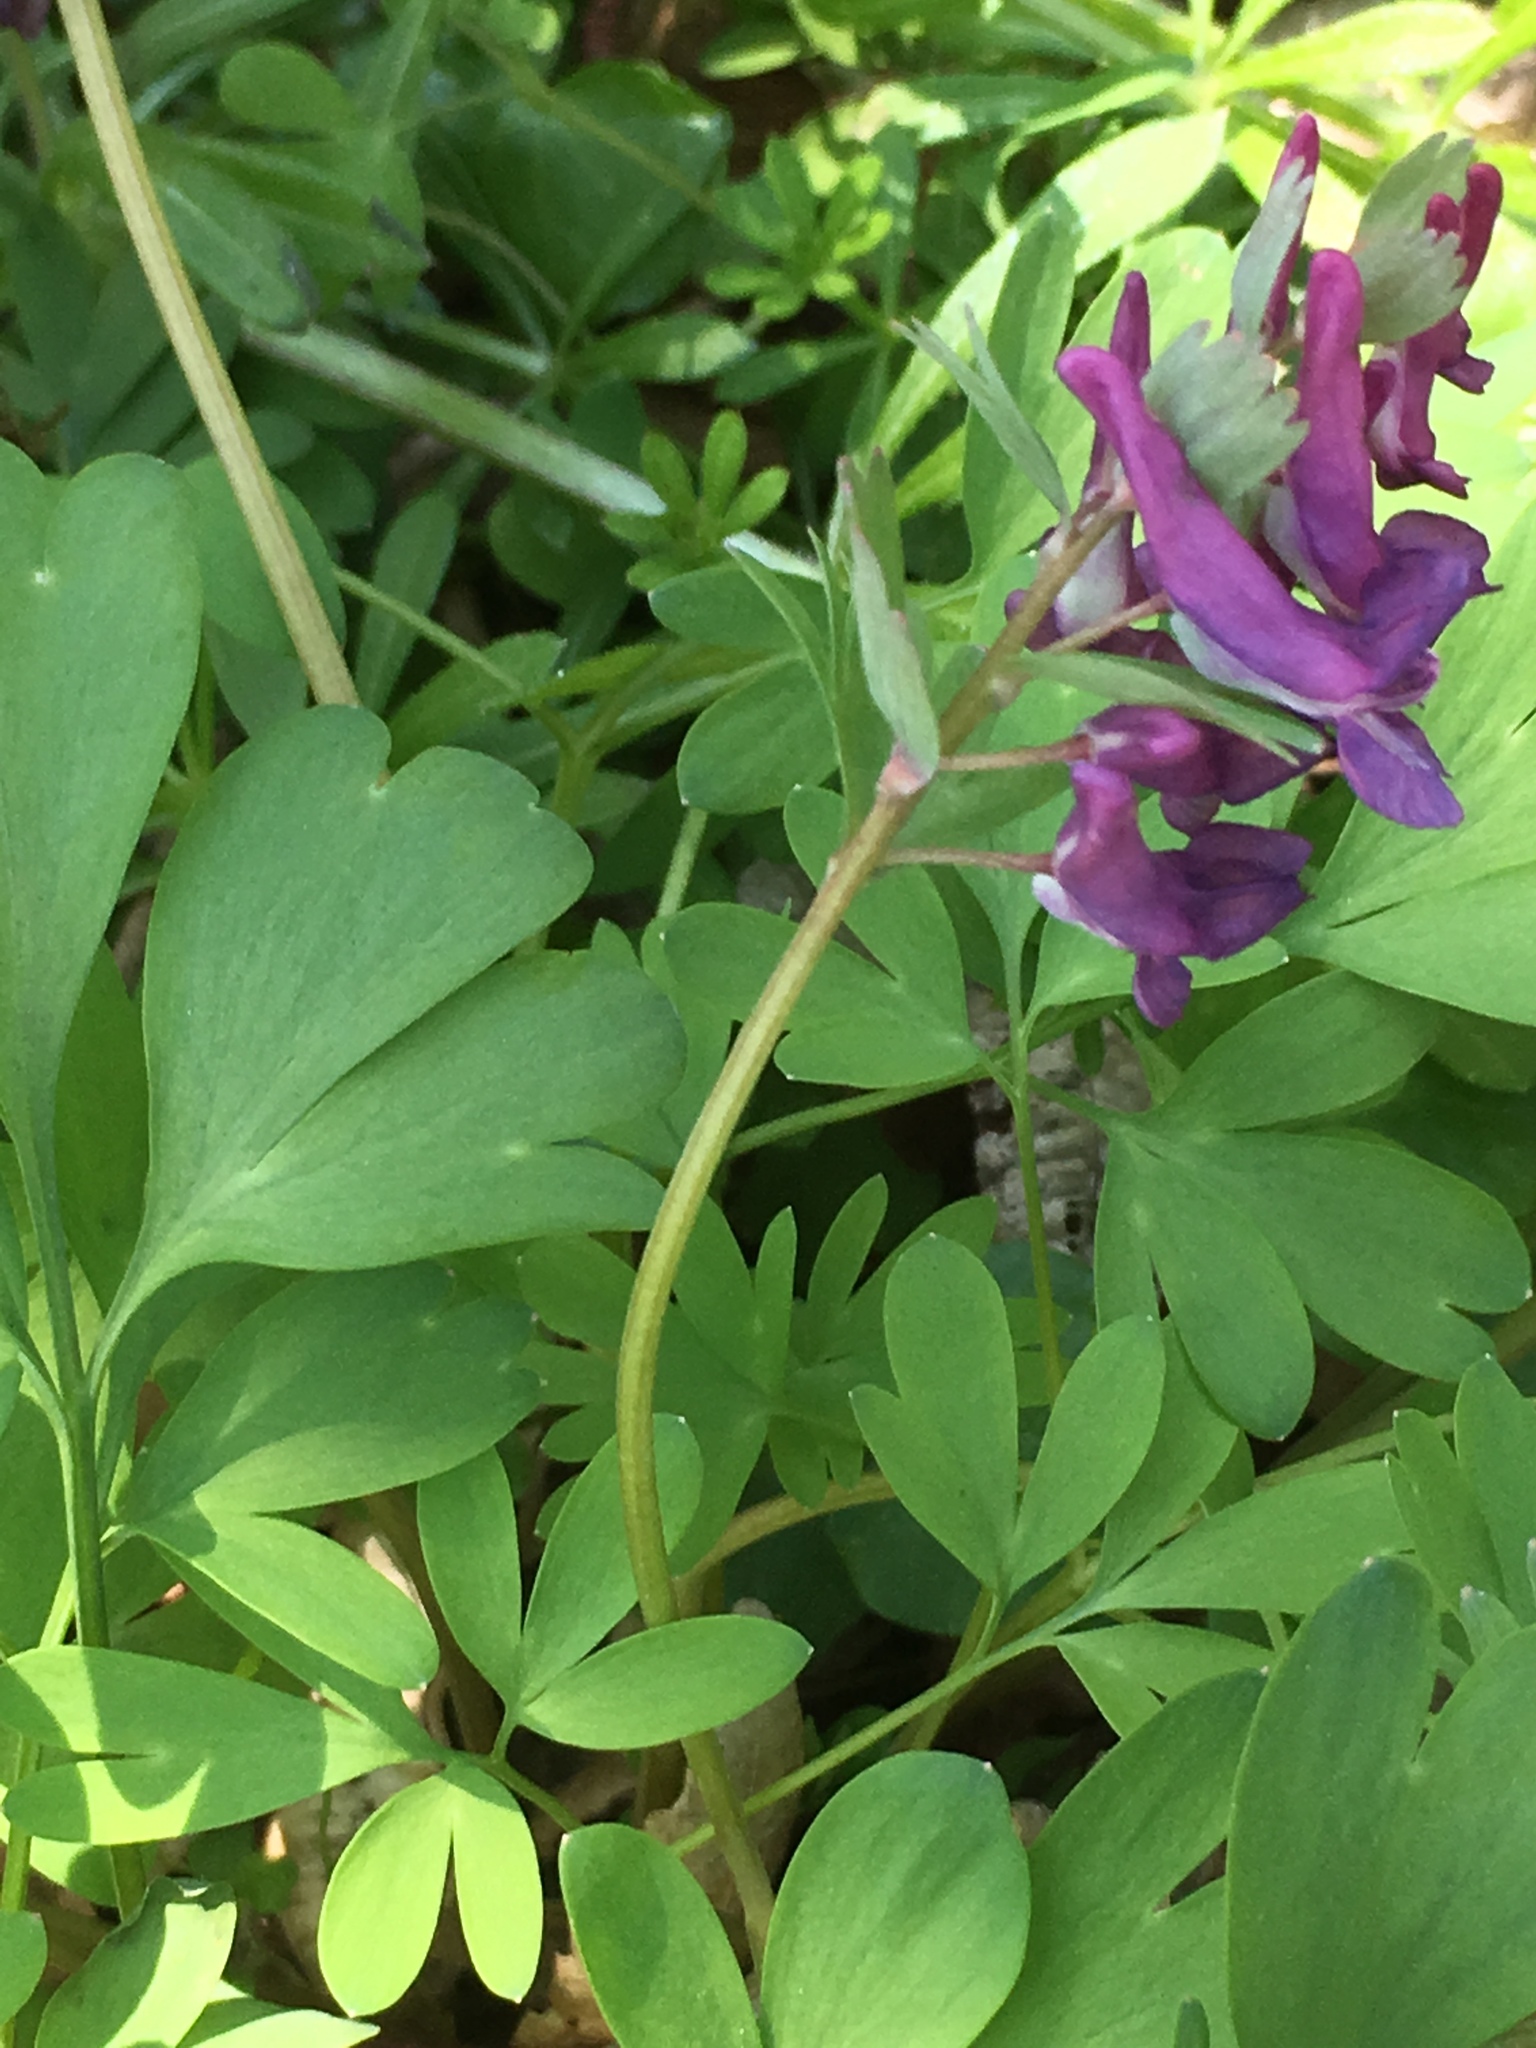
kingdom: Plantae
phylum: Tracheophyta
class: Magnoliopsida
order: Ranunculales
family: Papaveraceae
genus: Corydalis
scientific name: Corydalis solida
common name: Bird-in-a-bush
